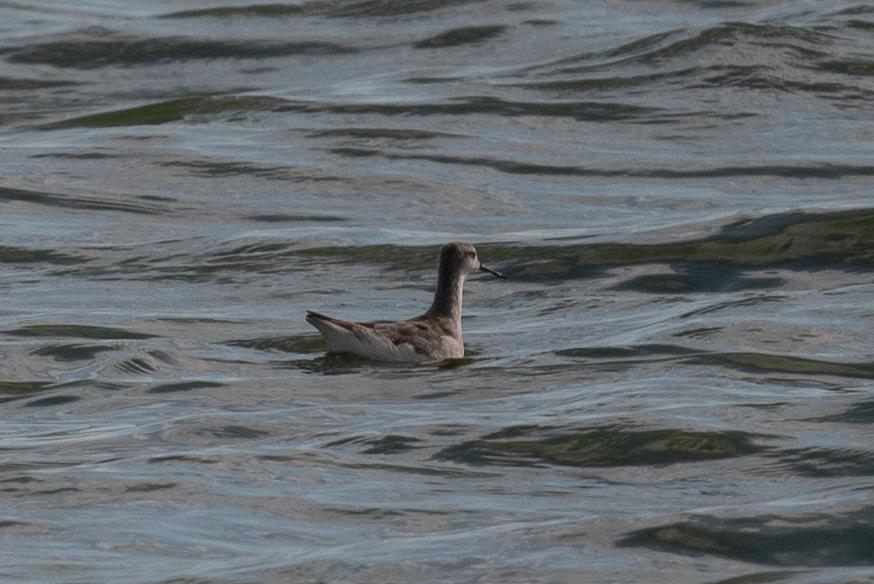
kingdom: Animalia
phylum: Chordata
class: Aves
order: Charadriiformes
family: Scolopacidae
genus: Phalaropus
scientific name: Phalaropus tricolor
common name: Wilson's phalarope
